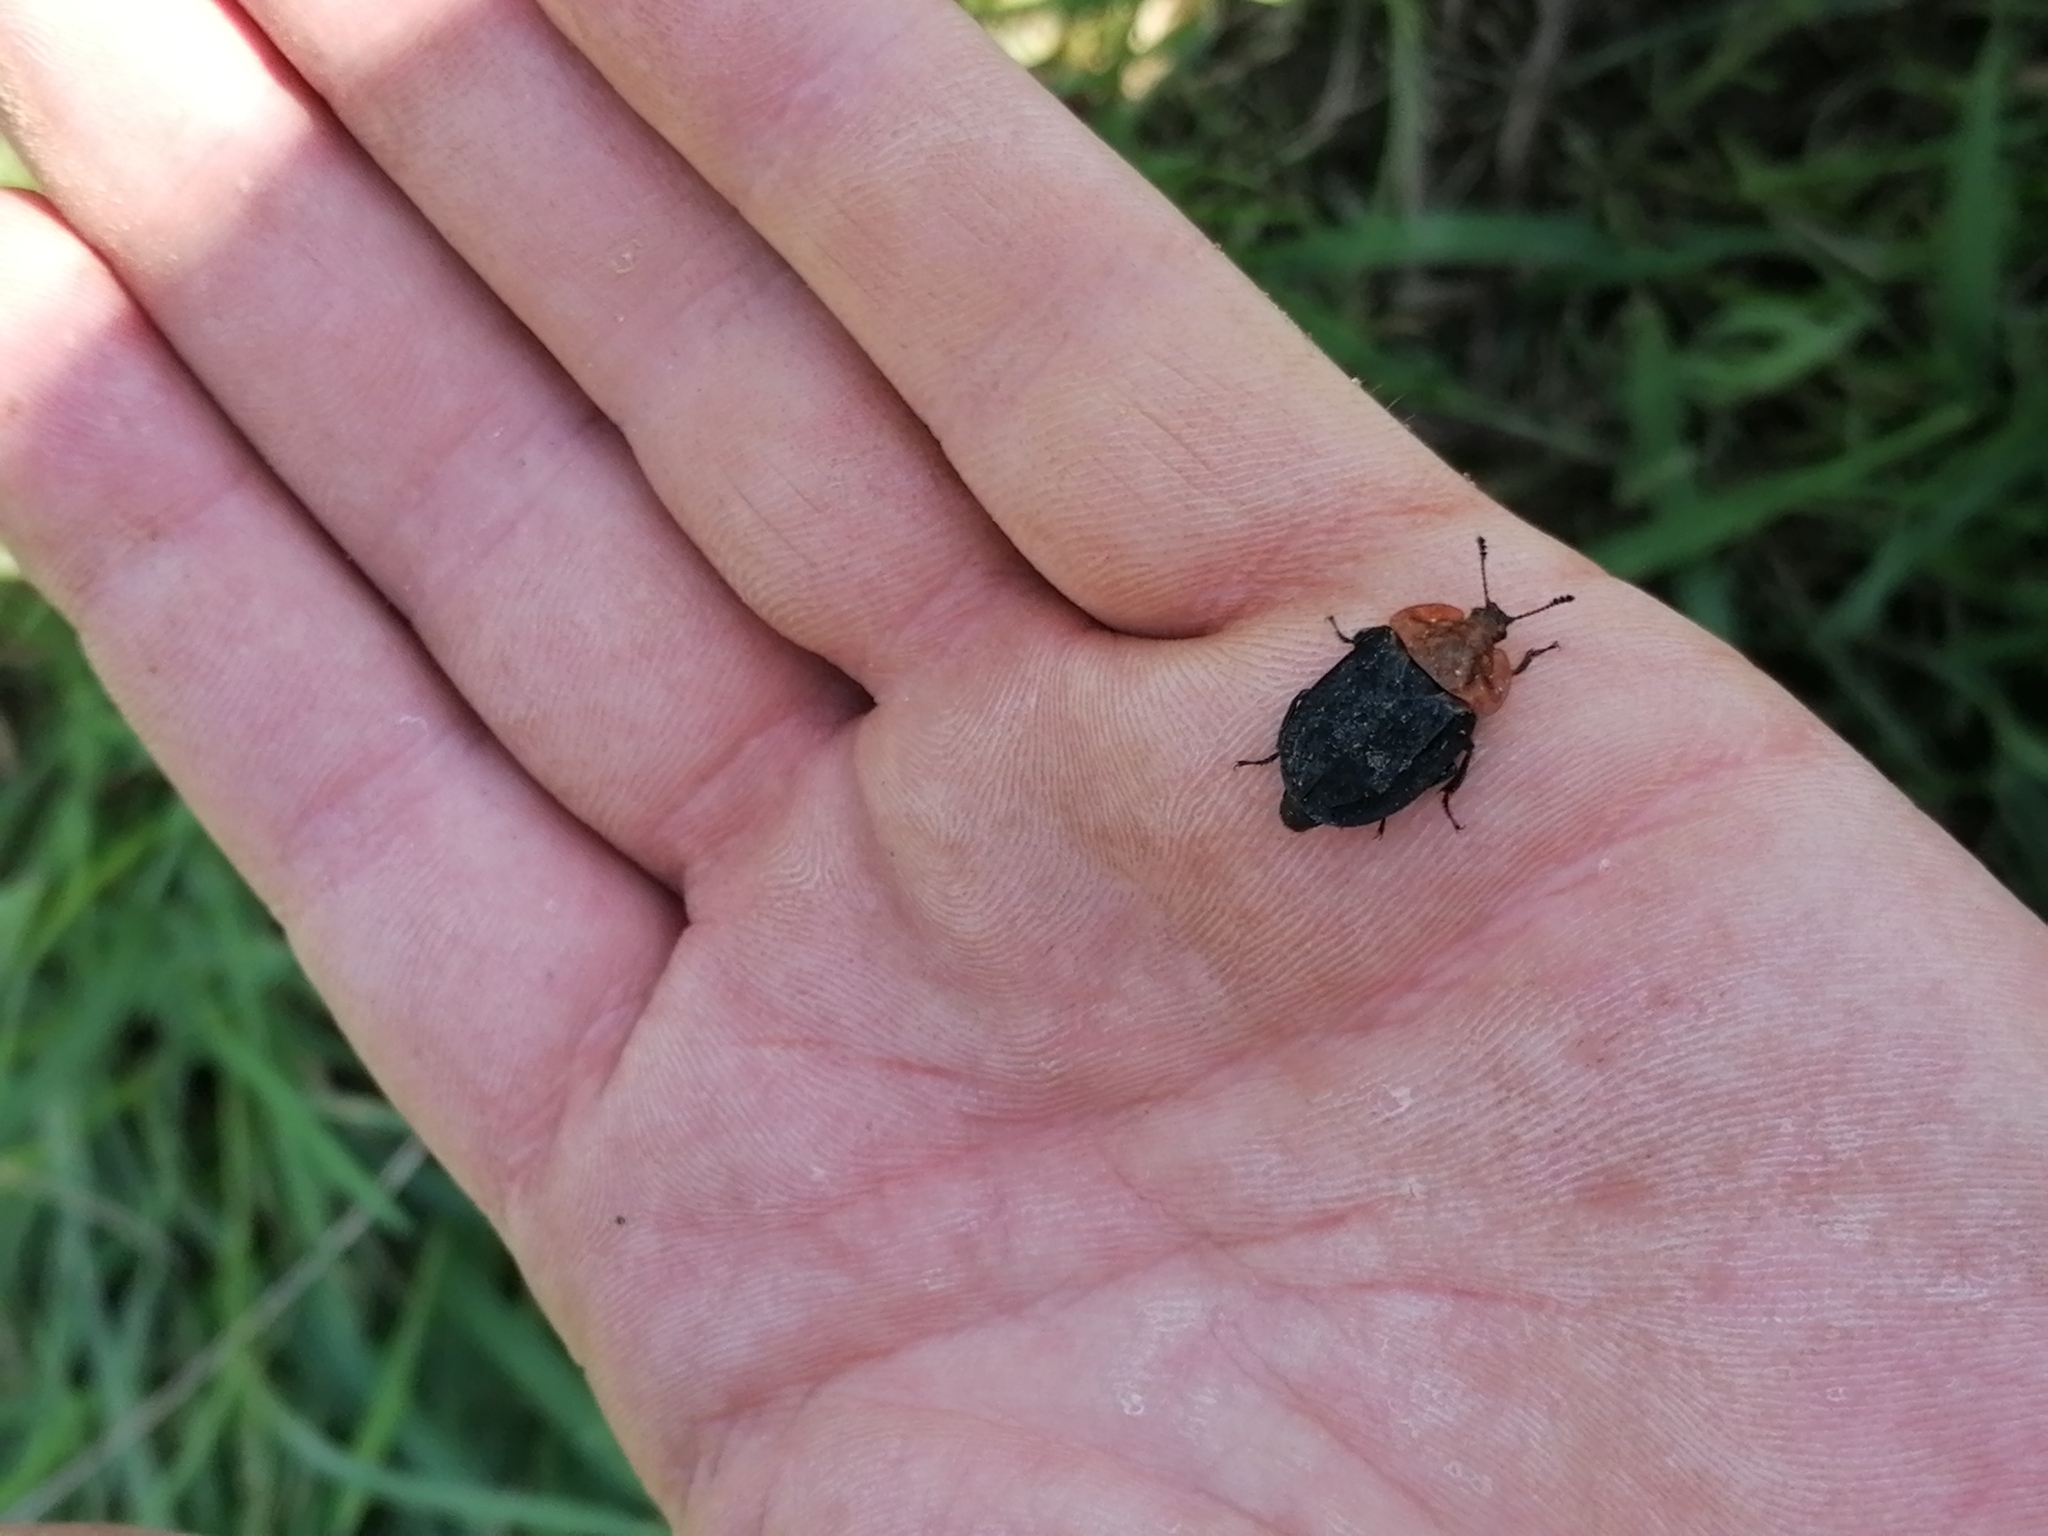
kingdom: Animalia
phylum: Arthropoda
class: Insecta
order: Coleoptera
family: Staphylinidae
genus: Oiceoptoma
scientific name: Oiceoptoma thoracicum
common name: Red-breasted carrion beetle
